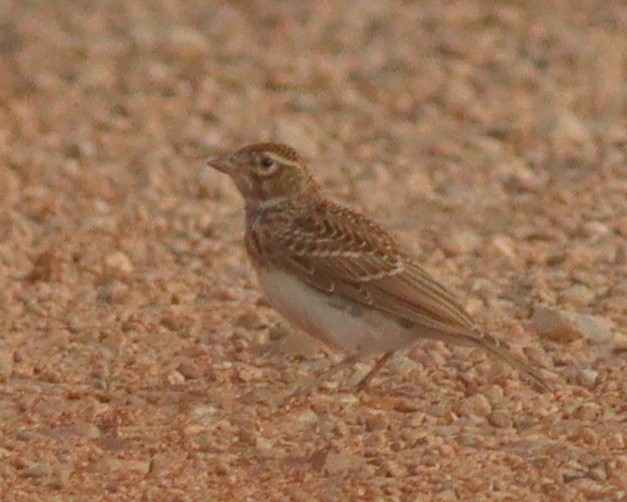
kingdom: Animalia
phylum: Chordata
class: Aves
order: Passeriformes
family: Alaudidae
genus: Calandrella
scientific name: Calandrella brachydactyla
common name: Greater short-toed lark
